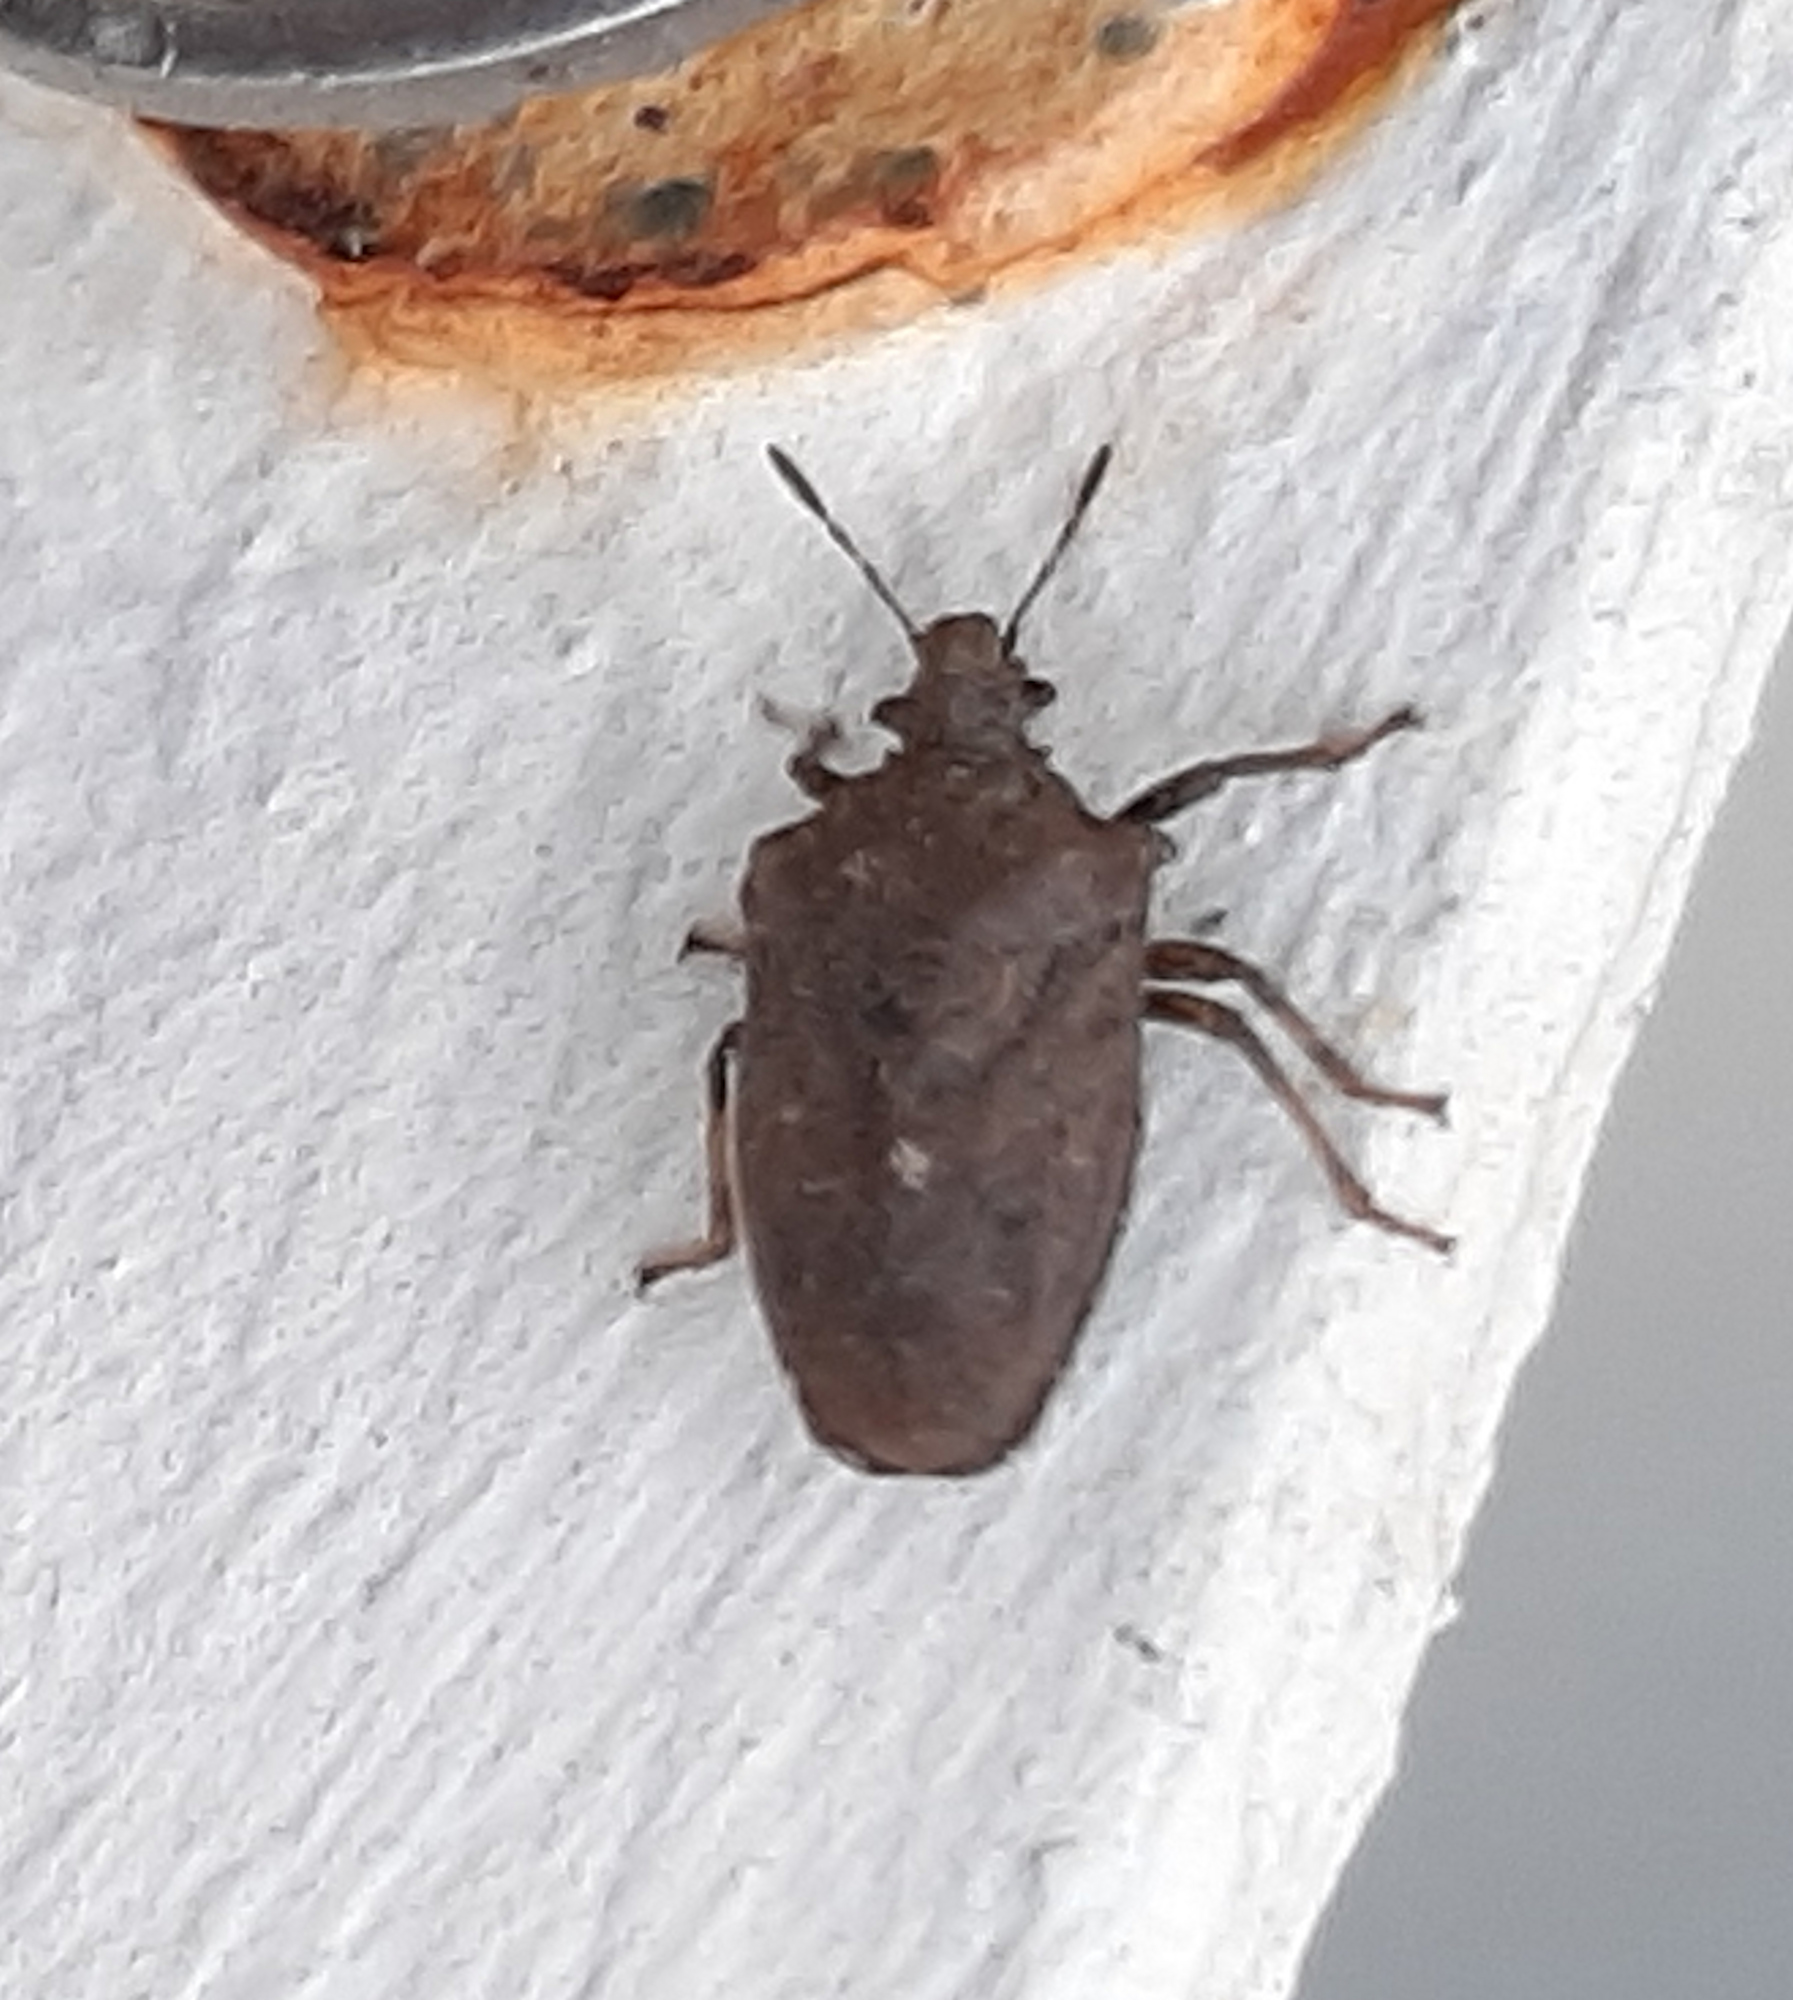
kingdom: Animalia
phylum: Arthropoda
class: Insecta
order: Hemiptera
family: Pentatomidae
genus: Amaurochrous
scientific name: Amaurochrous cinctipes
